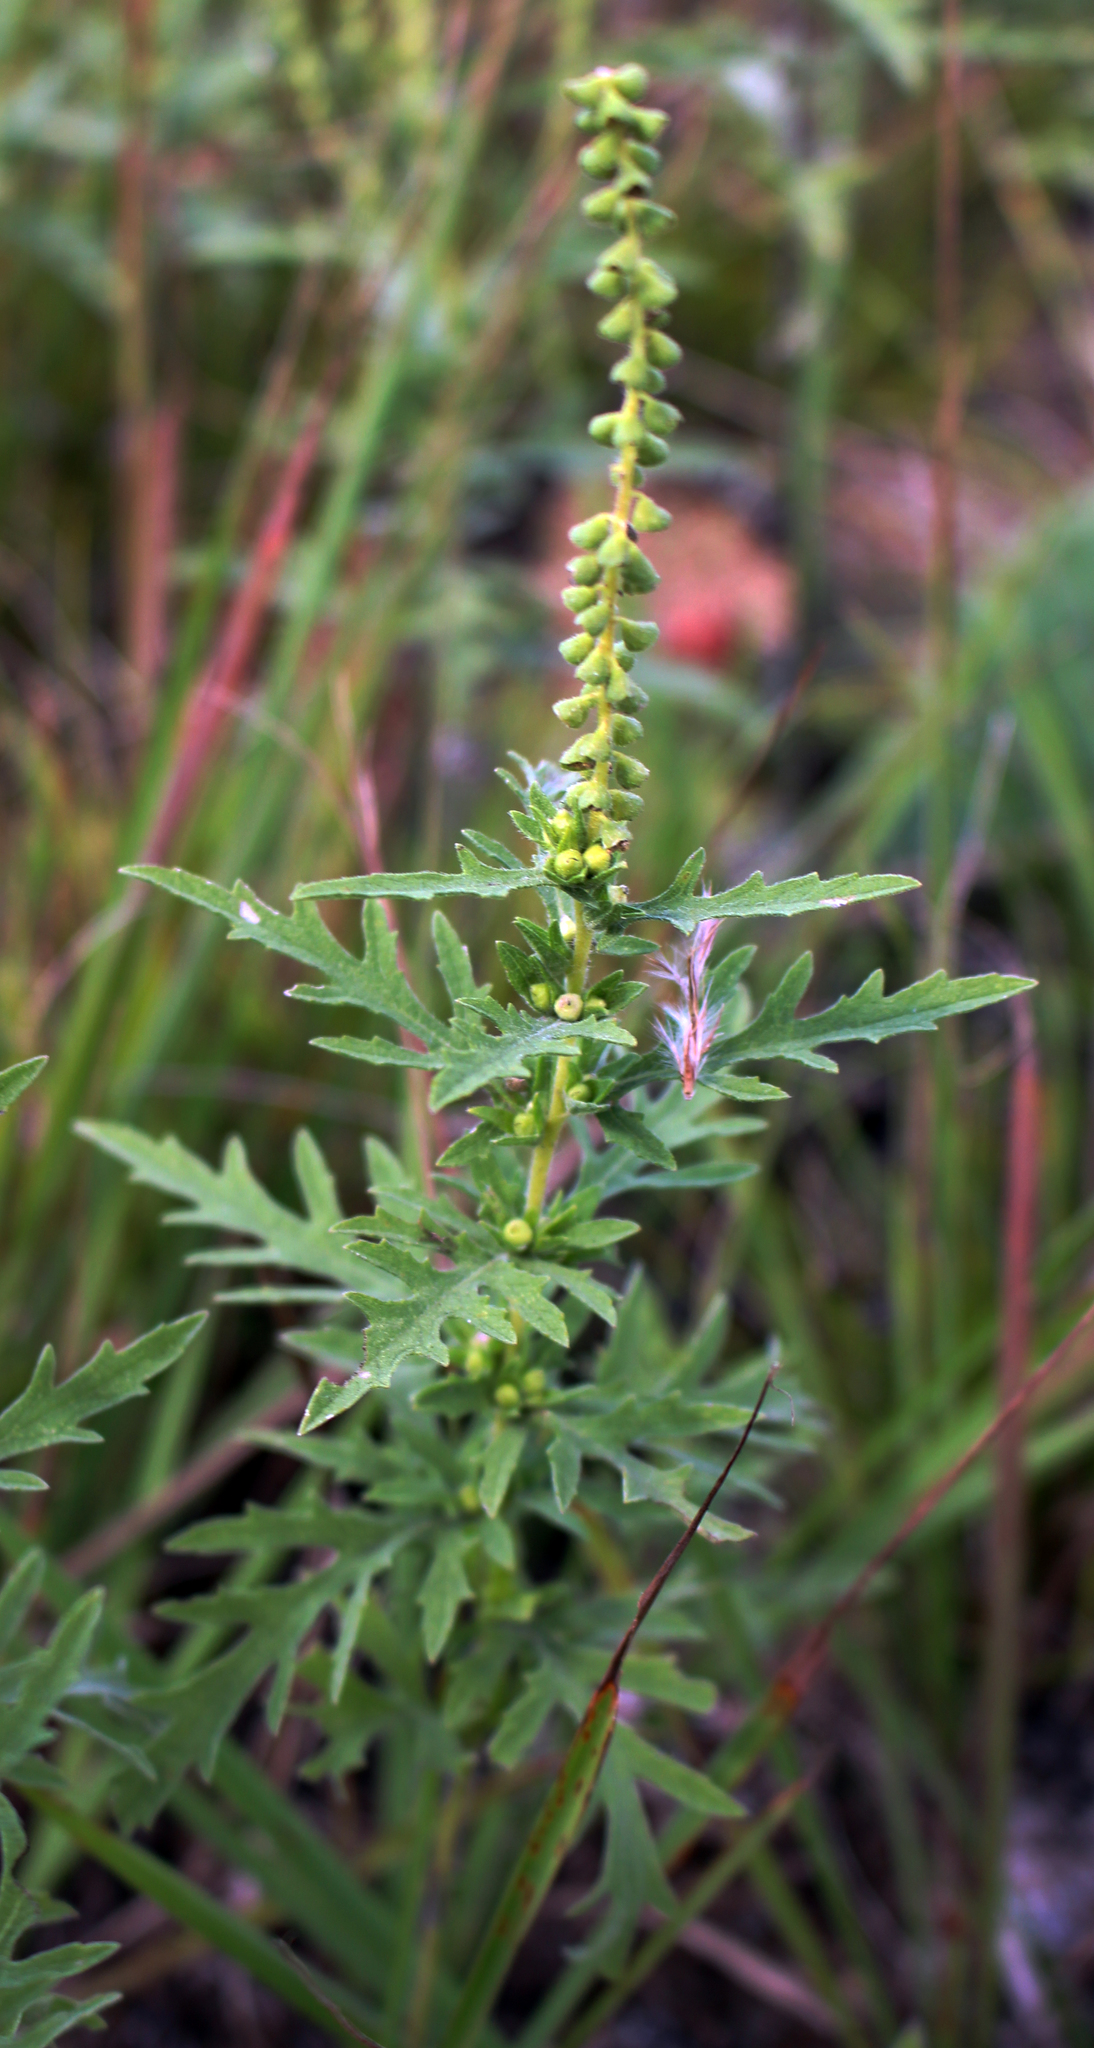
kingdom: Plantae
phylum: Tracheophyta
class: Magnoliopsida
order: Asterales
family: Asteraceae
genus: Ambrosia
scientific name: Ambrosia psilostachya
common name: Perennial ragweed
